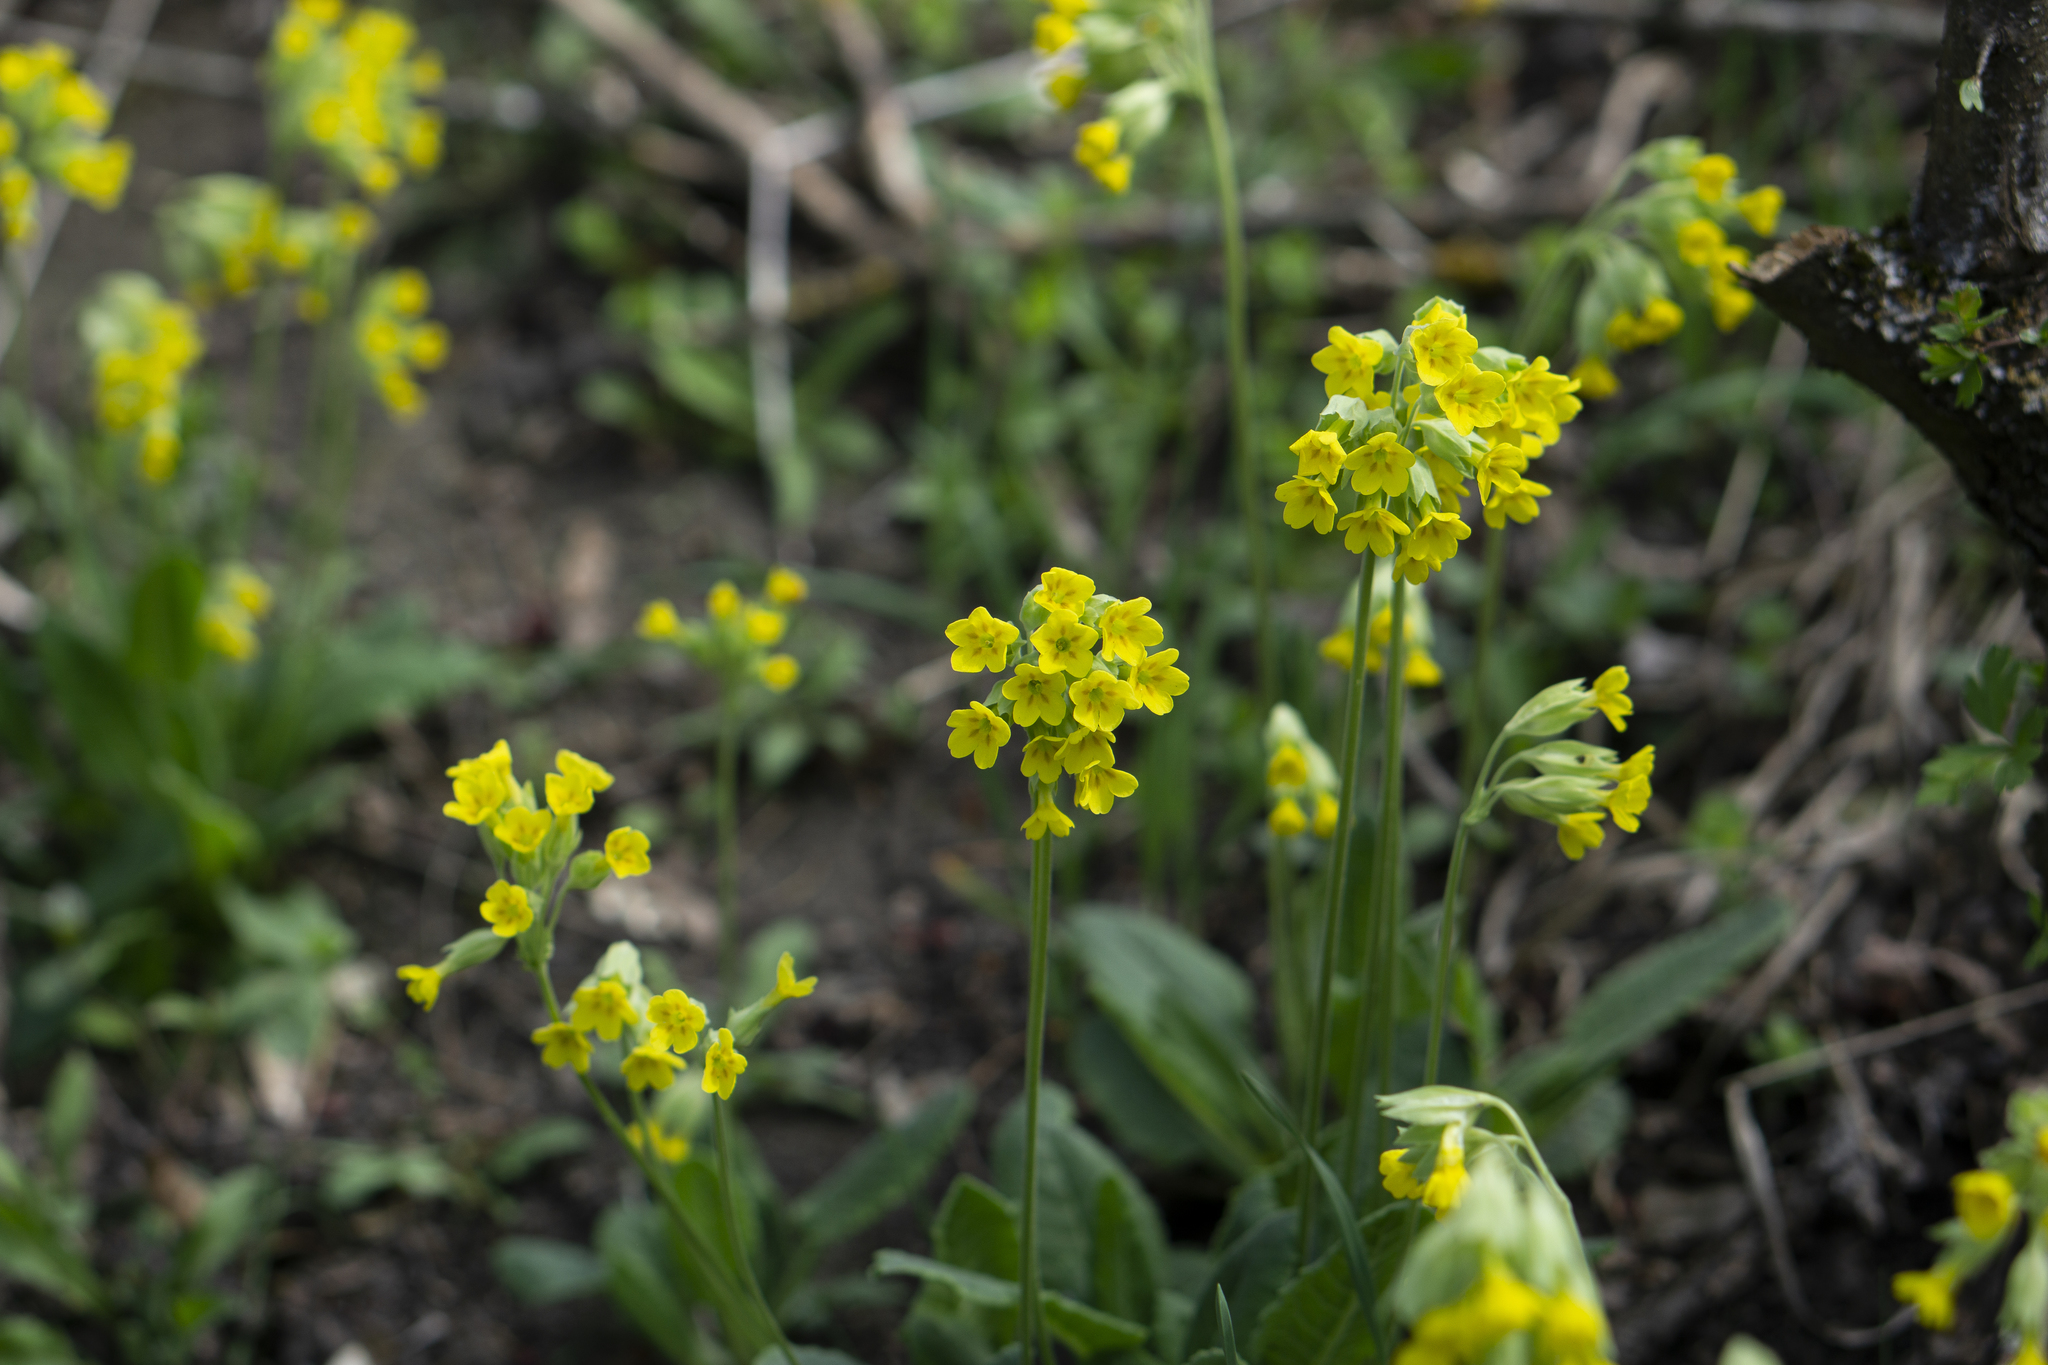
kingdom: Plantae
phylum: Tracheophyta
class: Magnoliopsida
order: Ericales
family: Primulaceae
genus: Primula
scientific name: Primula veris
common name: Cowslip
